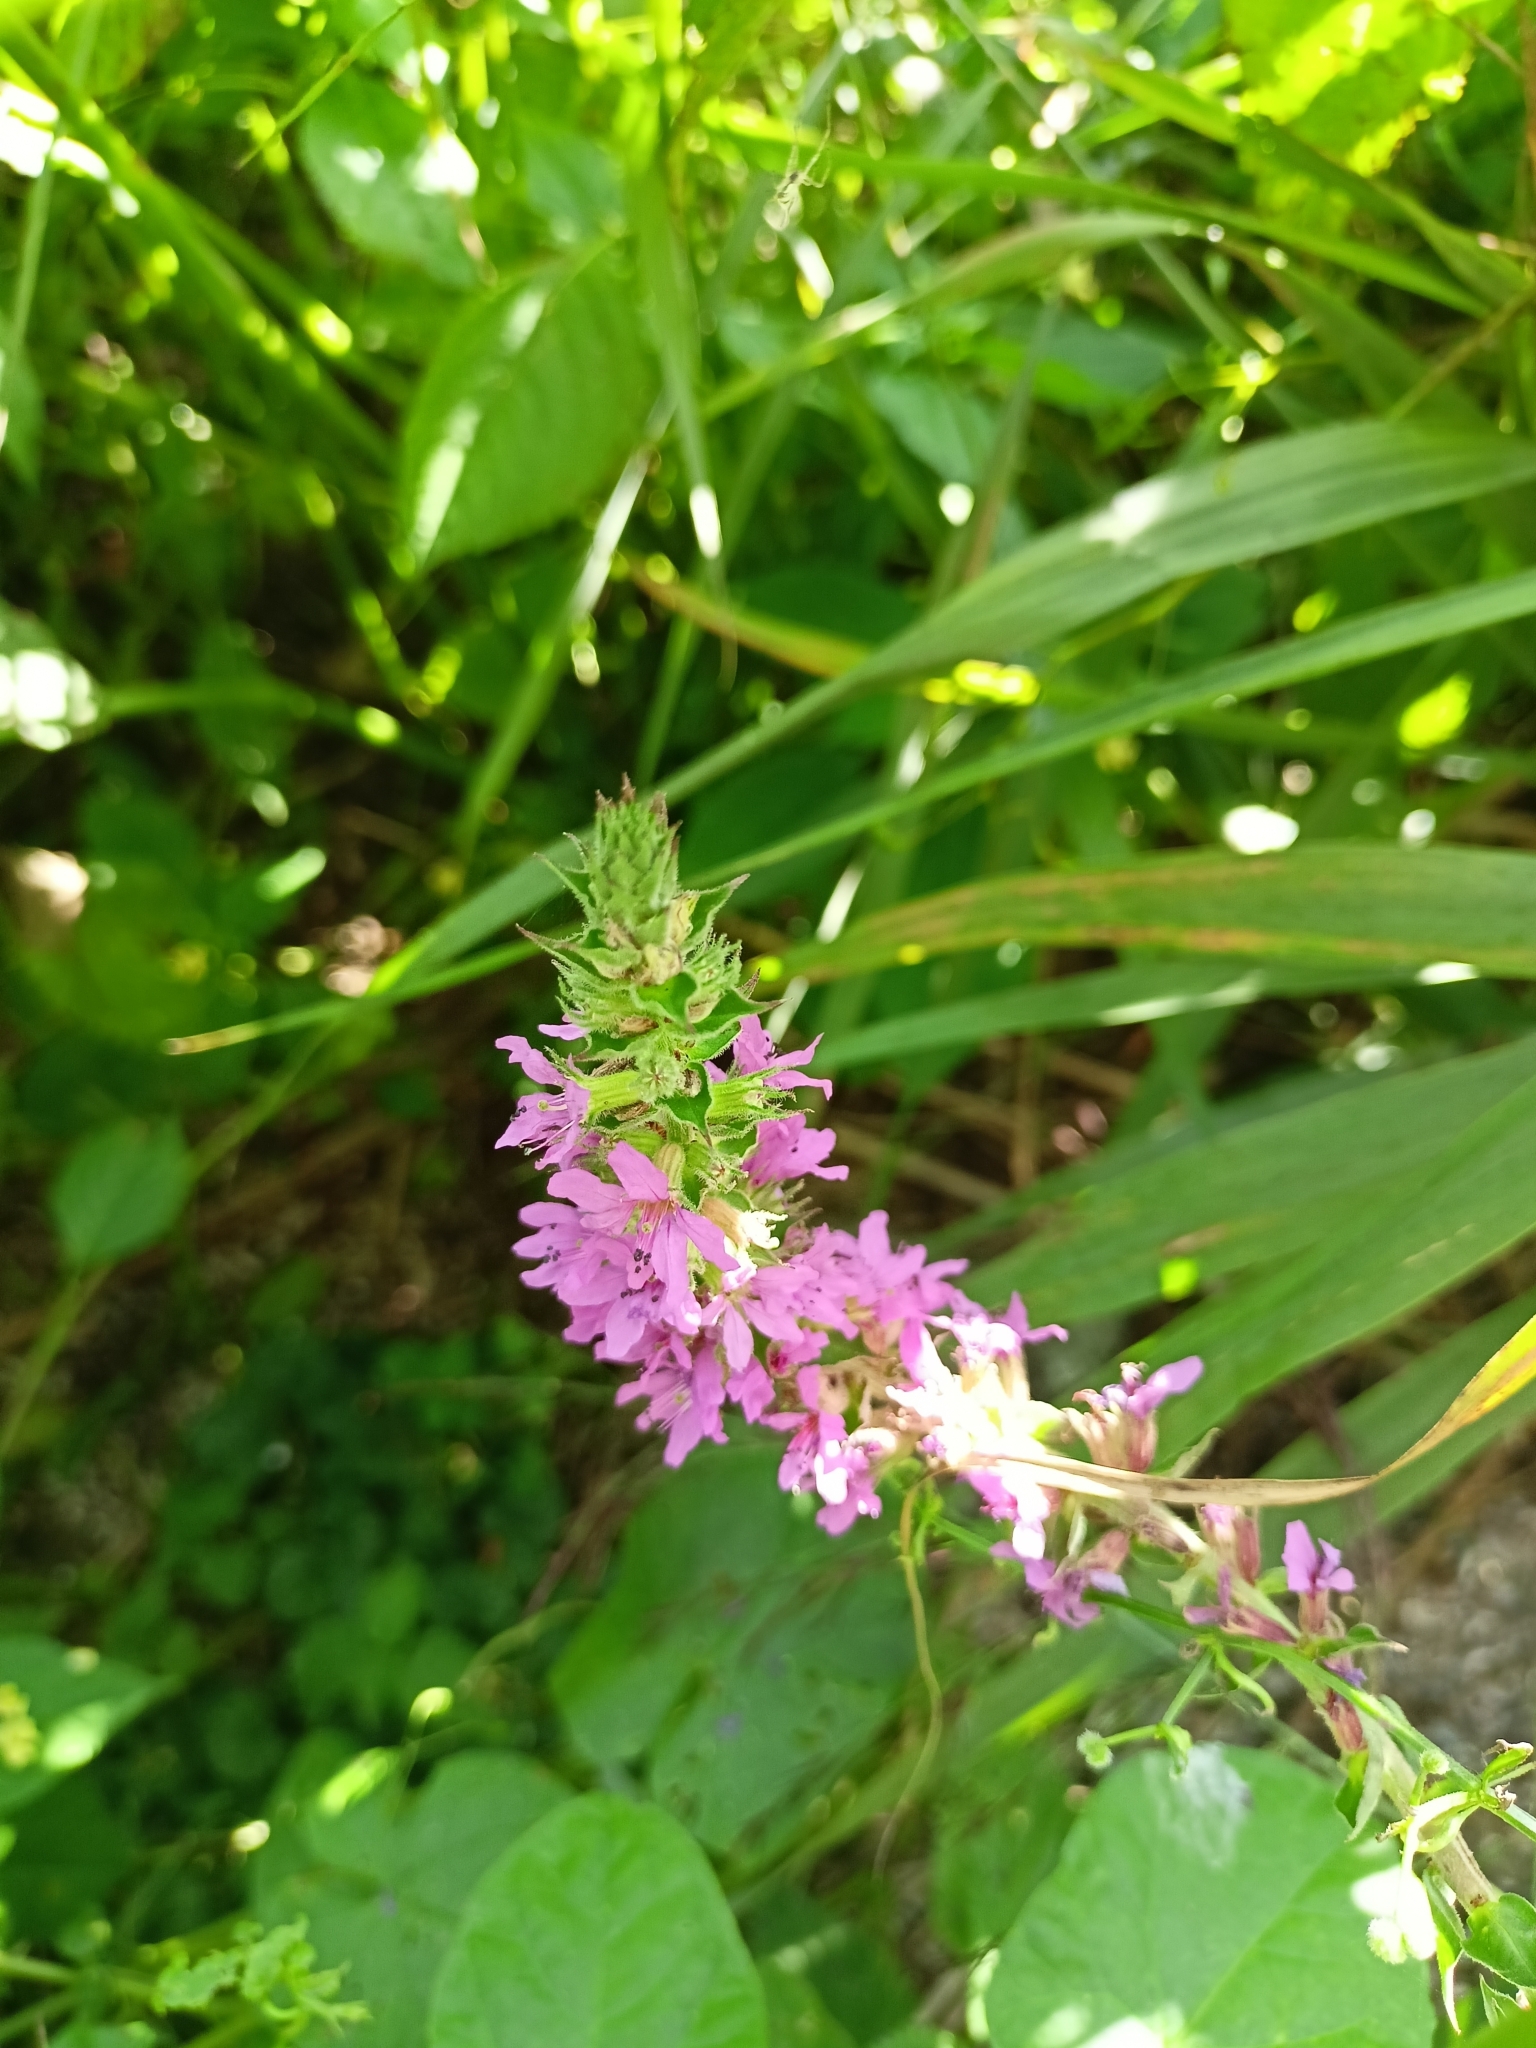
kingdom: Plantae
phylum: Tracheophyta
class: Magnoliopsida
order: Myrtales
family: Lythraceae
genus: Lythrum
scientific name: Lythrum salicaria
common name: Purple loosestrife
